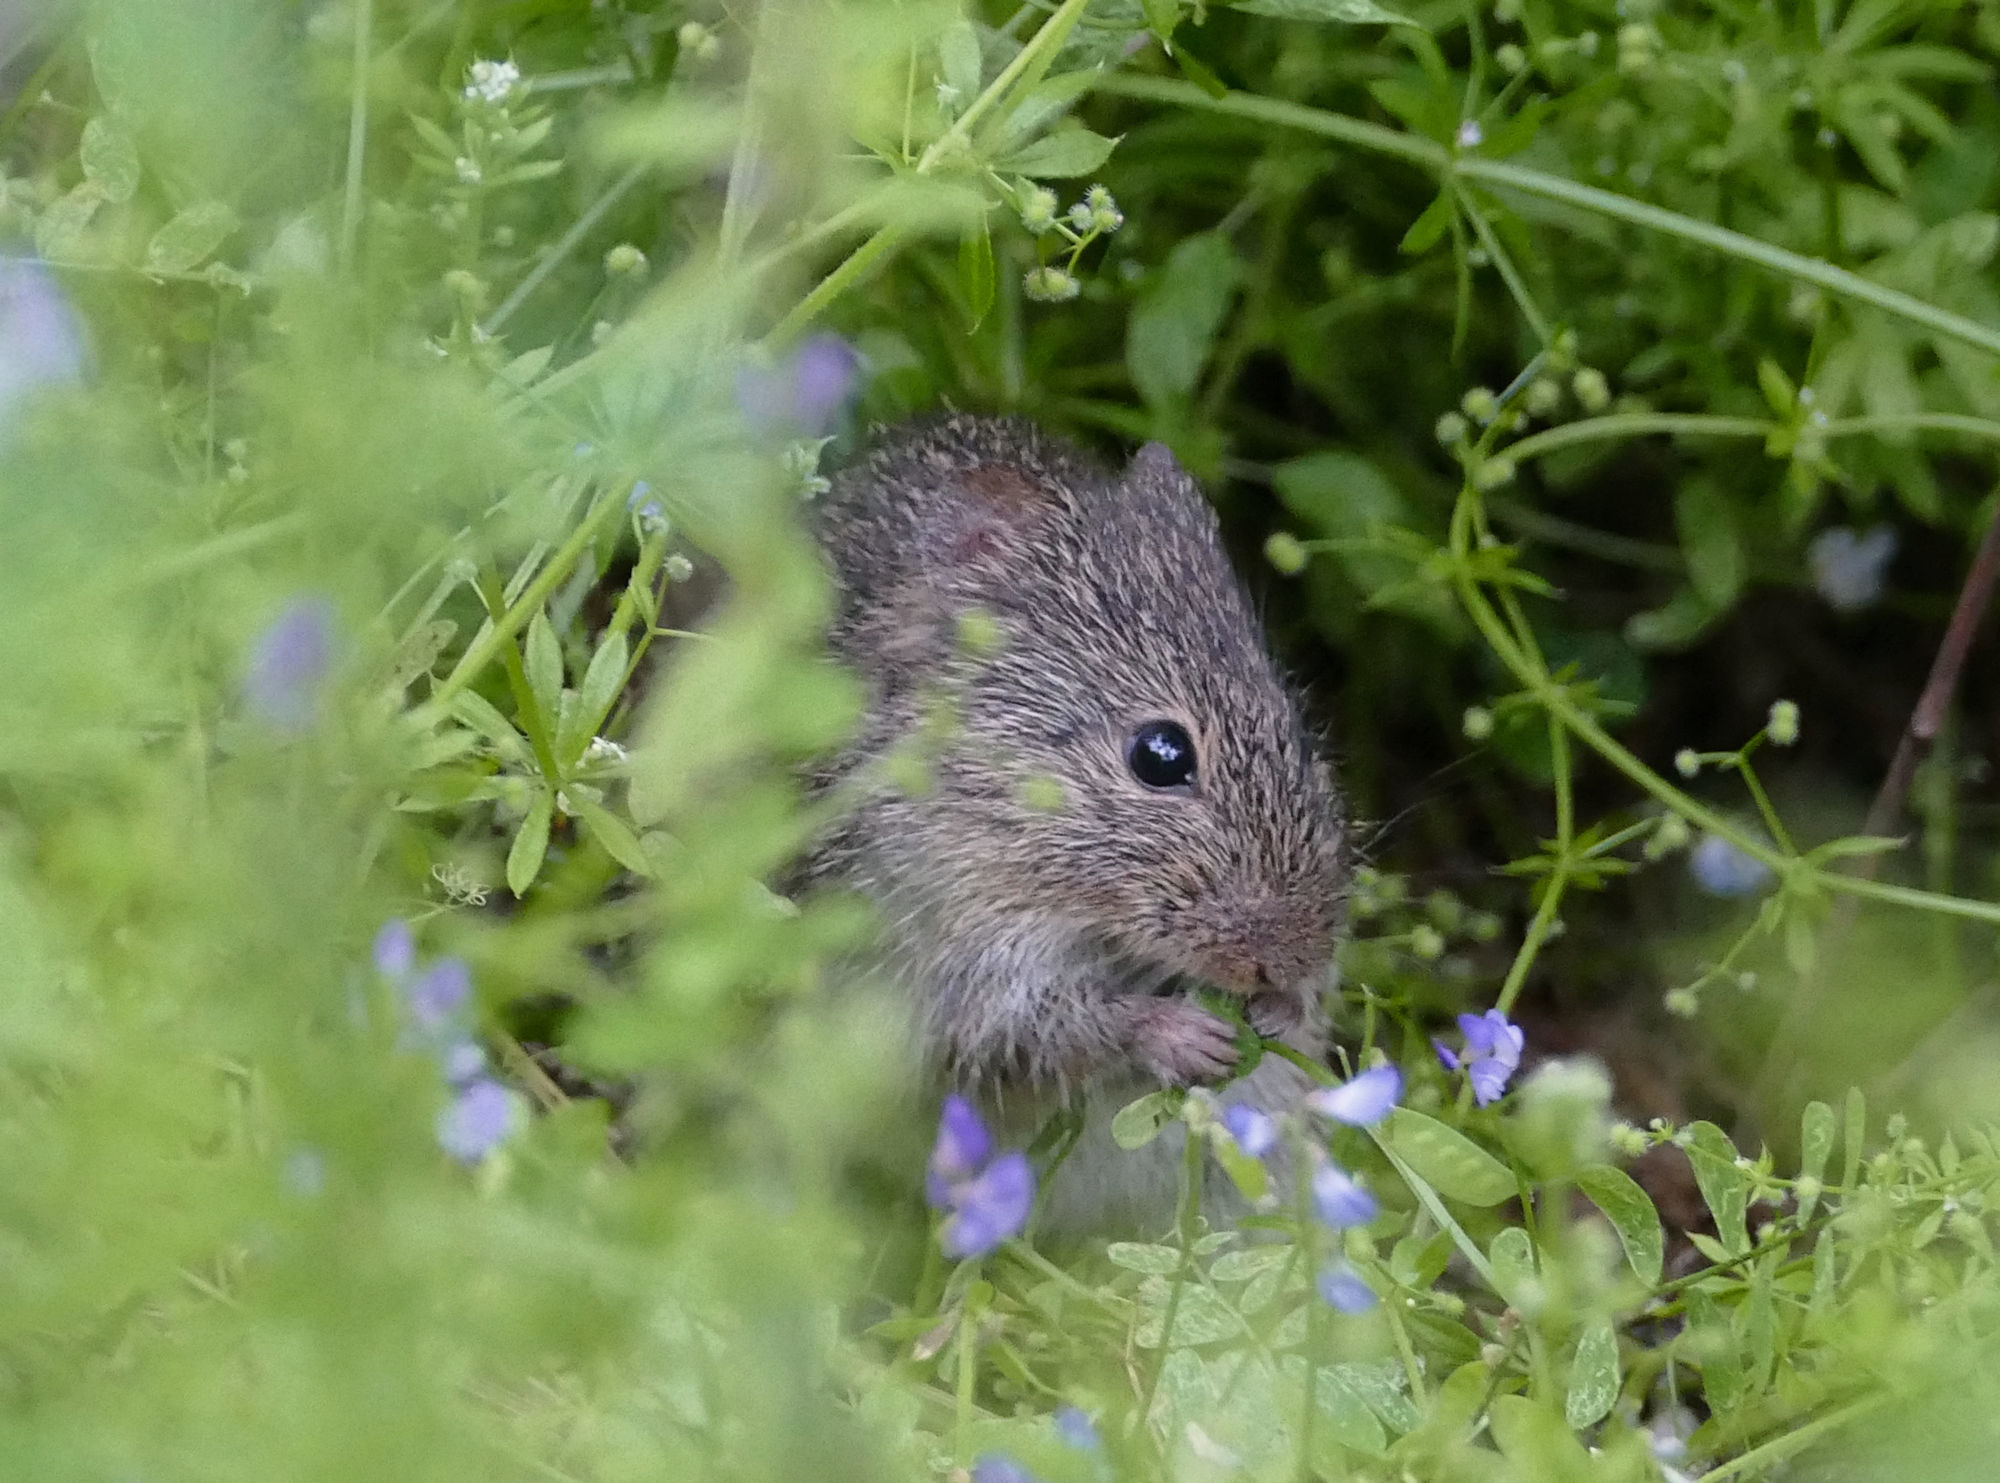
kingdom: Animalia
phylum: Chordata
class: Mammalia
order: Rodentia
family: Cricetidae
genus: Sigmodon
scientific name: Sigmodon hispidus
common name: Hispid cotton rat
